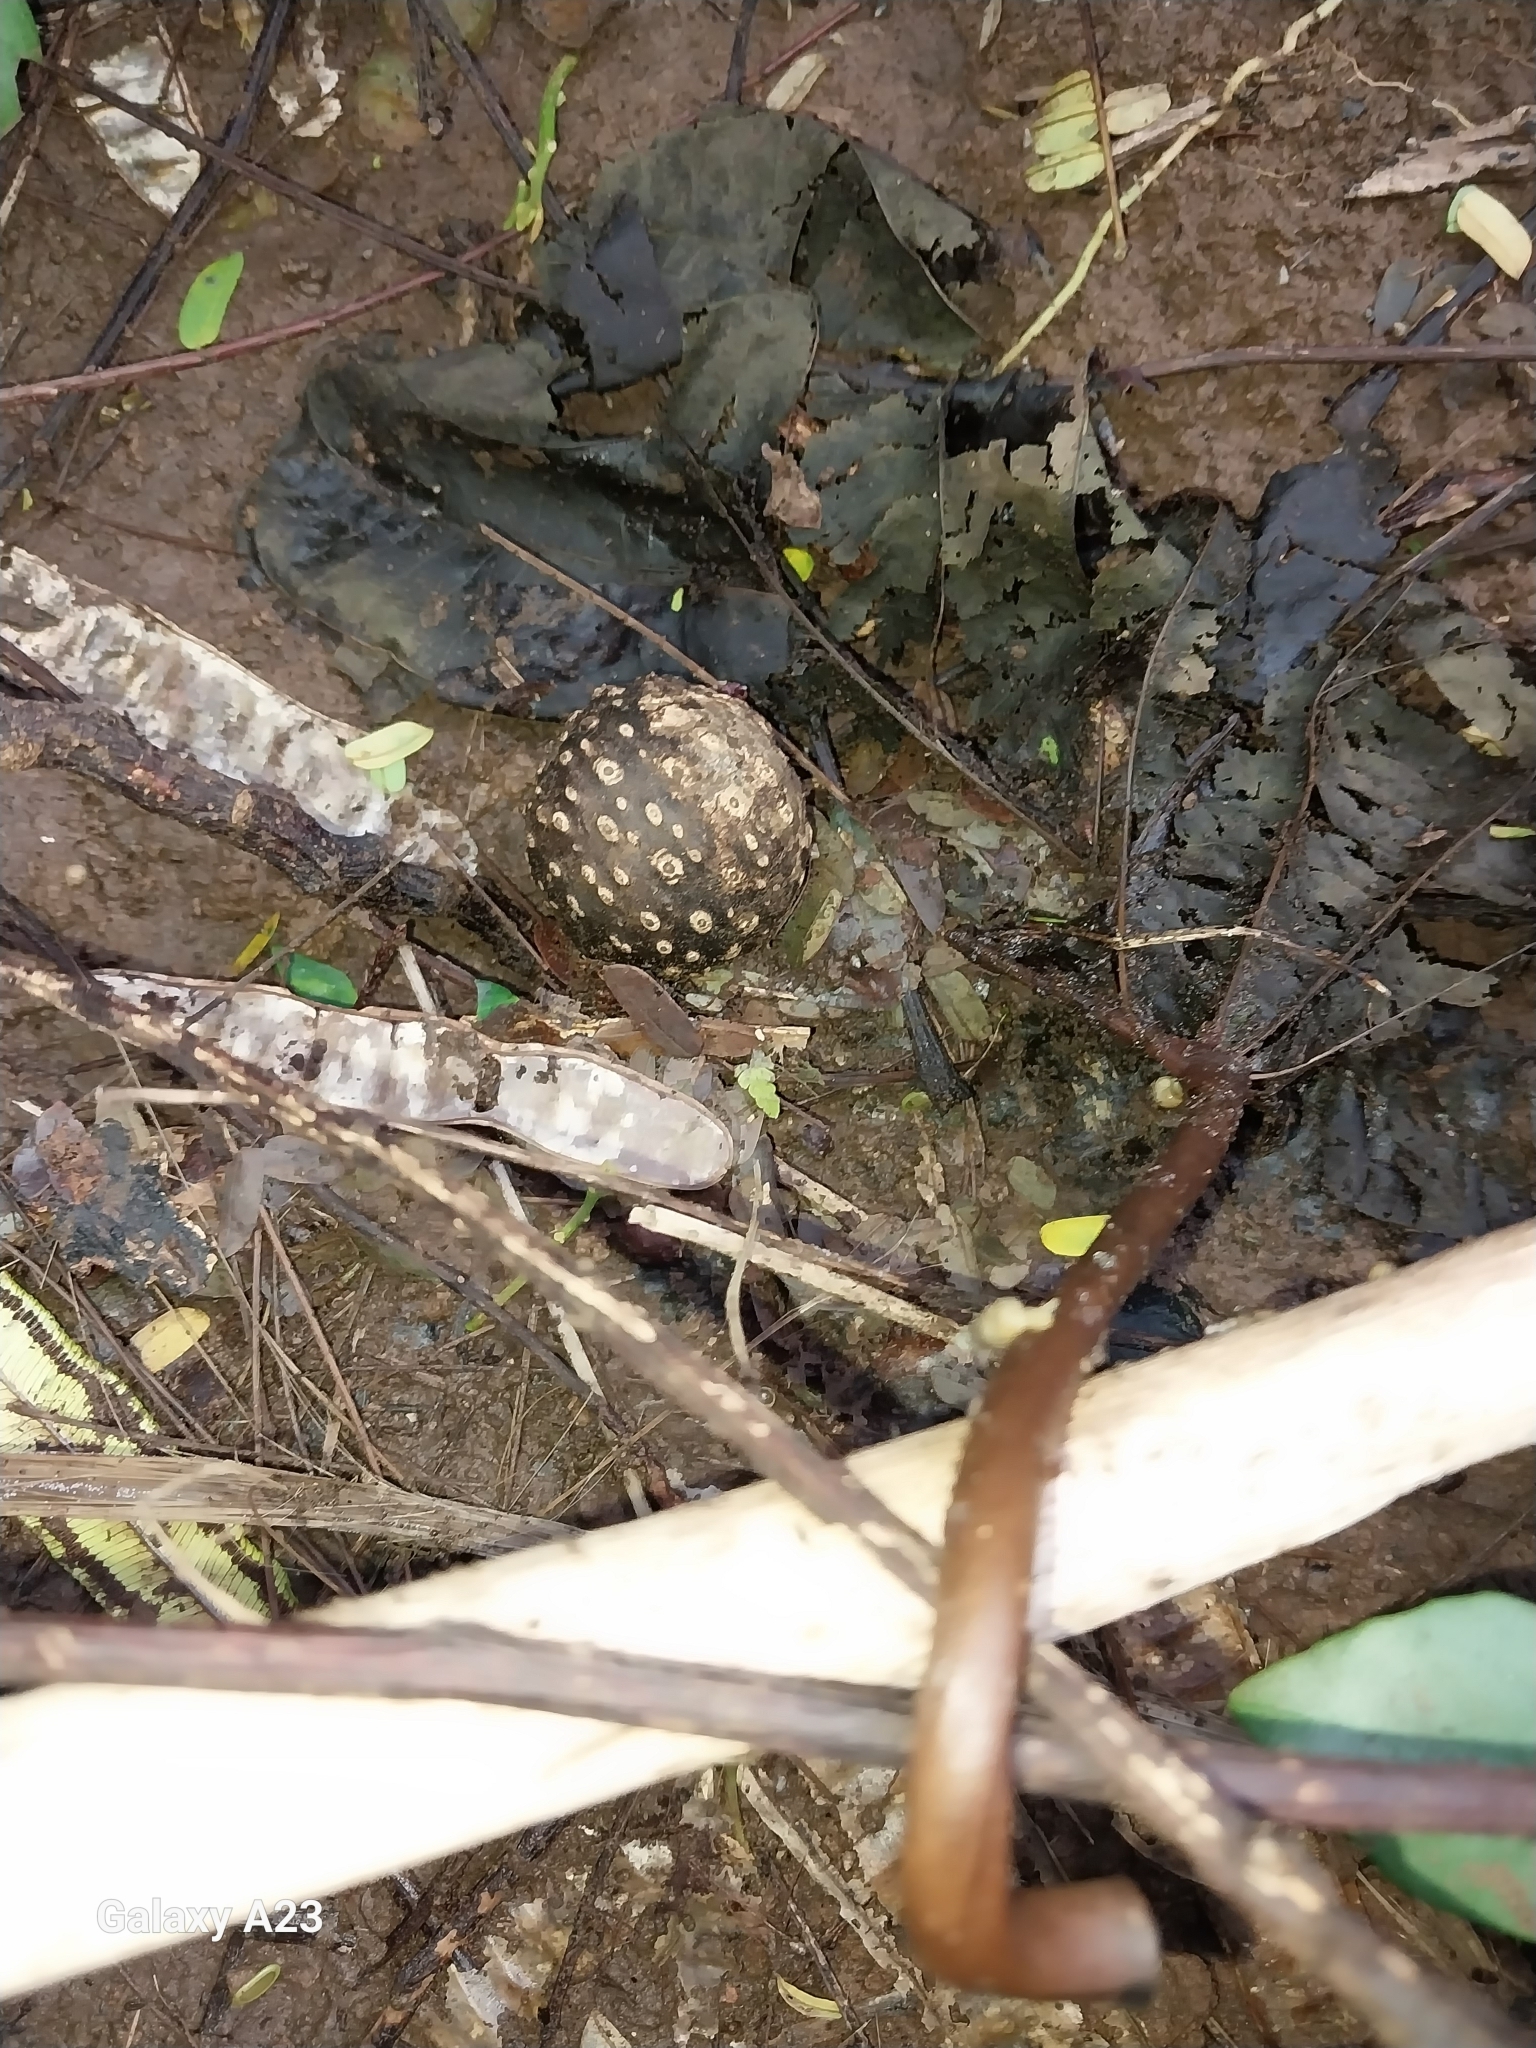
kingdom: Plantae
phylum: Tracheophyta
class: Liliopsida
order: Dioscoreales
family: Dioscoreaceae
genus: Dioscorea
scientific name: Dioscorea bulbifera
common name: Air yam
